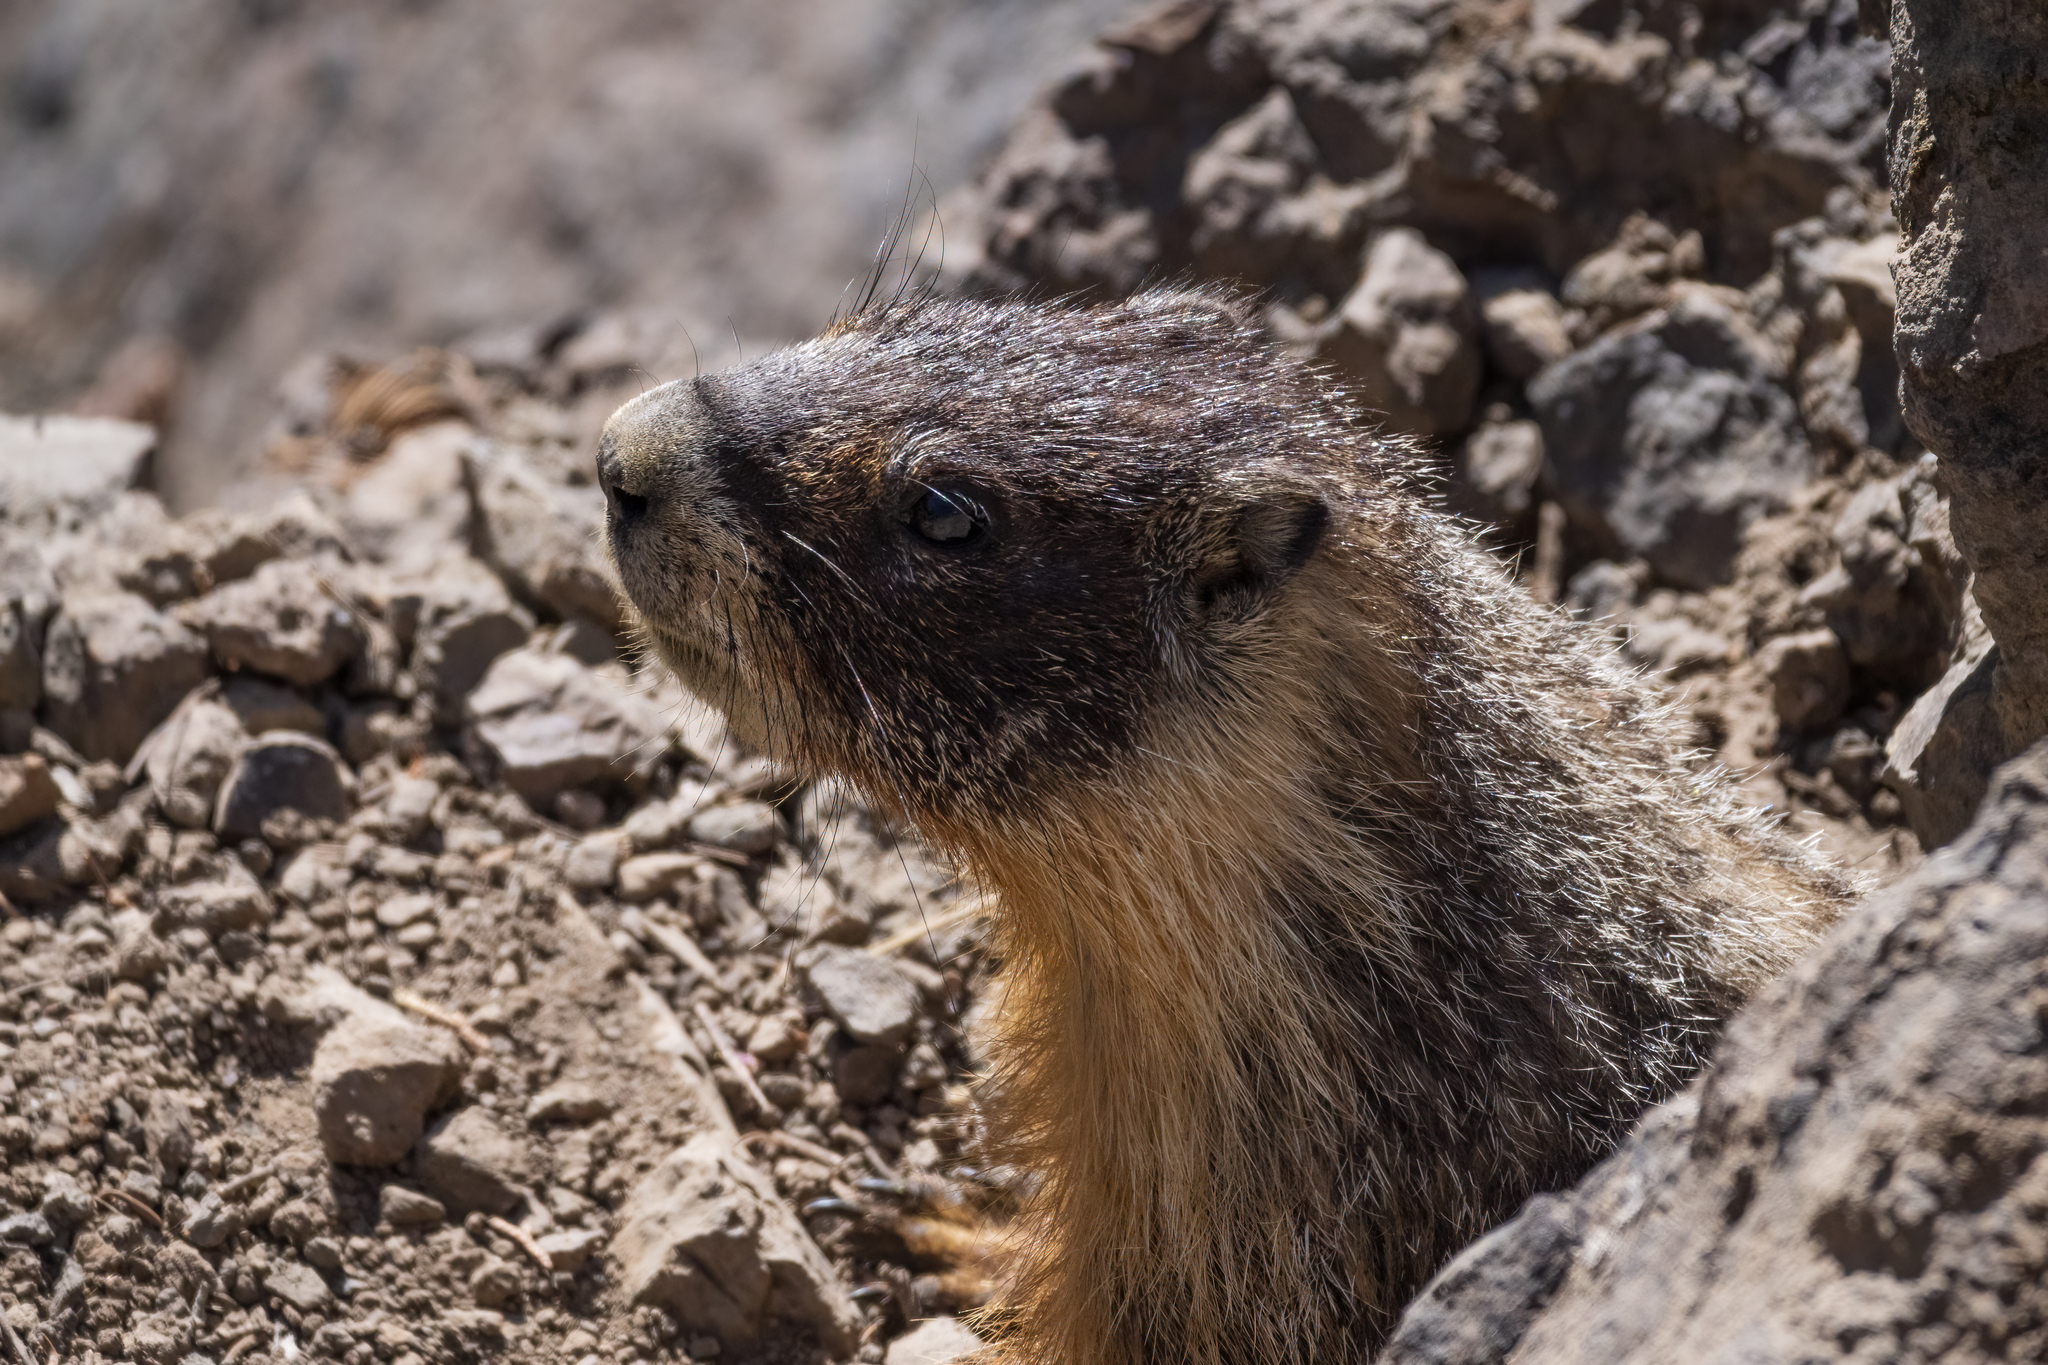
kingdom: Animalia
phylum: Chordata
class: Mammalia
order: Rodentia
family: Sciuridae
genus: Marmota
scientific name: Marmota flaviventris
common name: Yellow-bellied marmot
